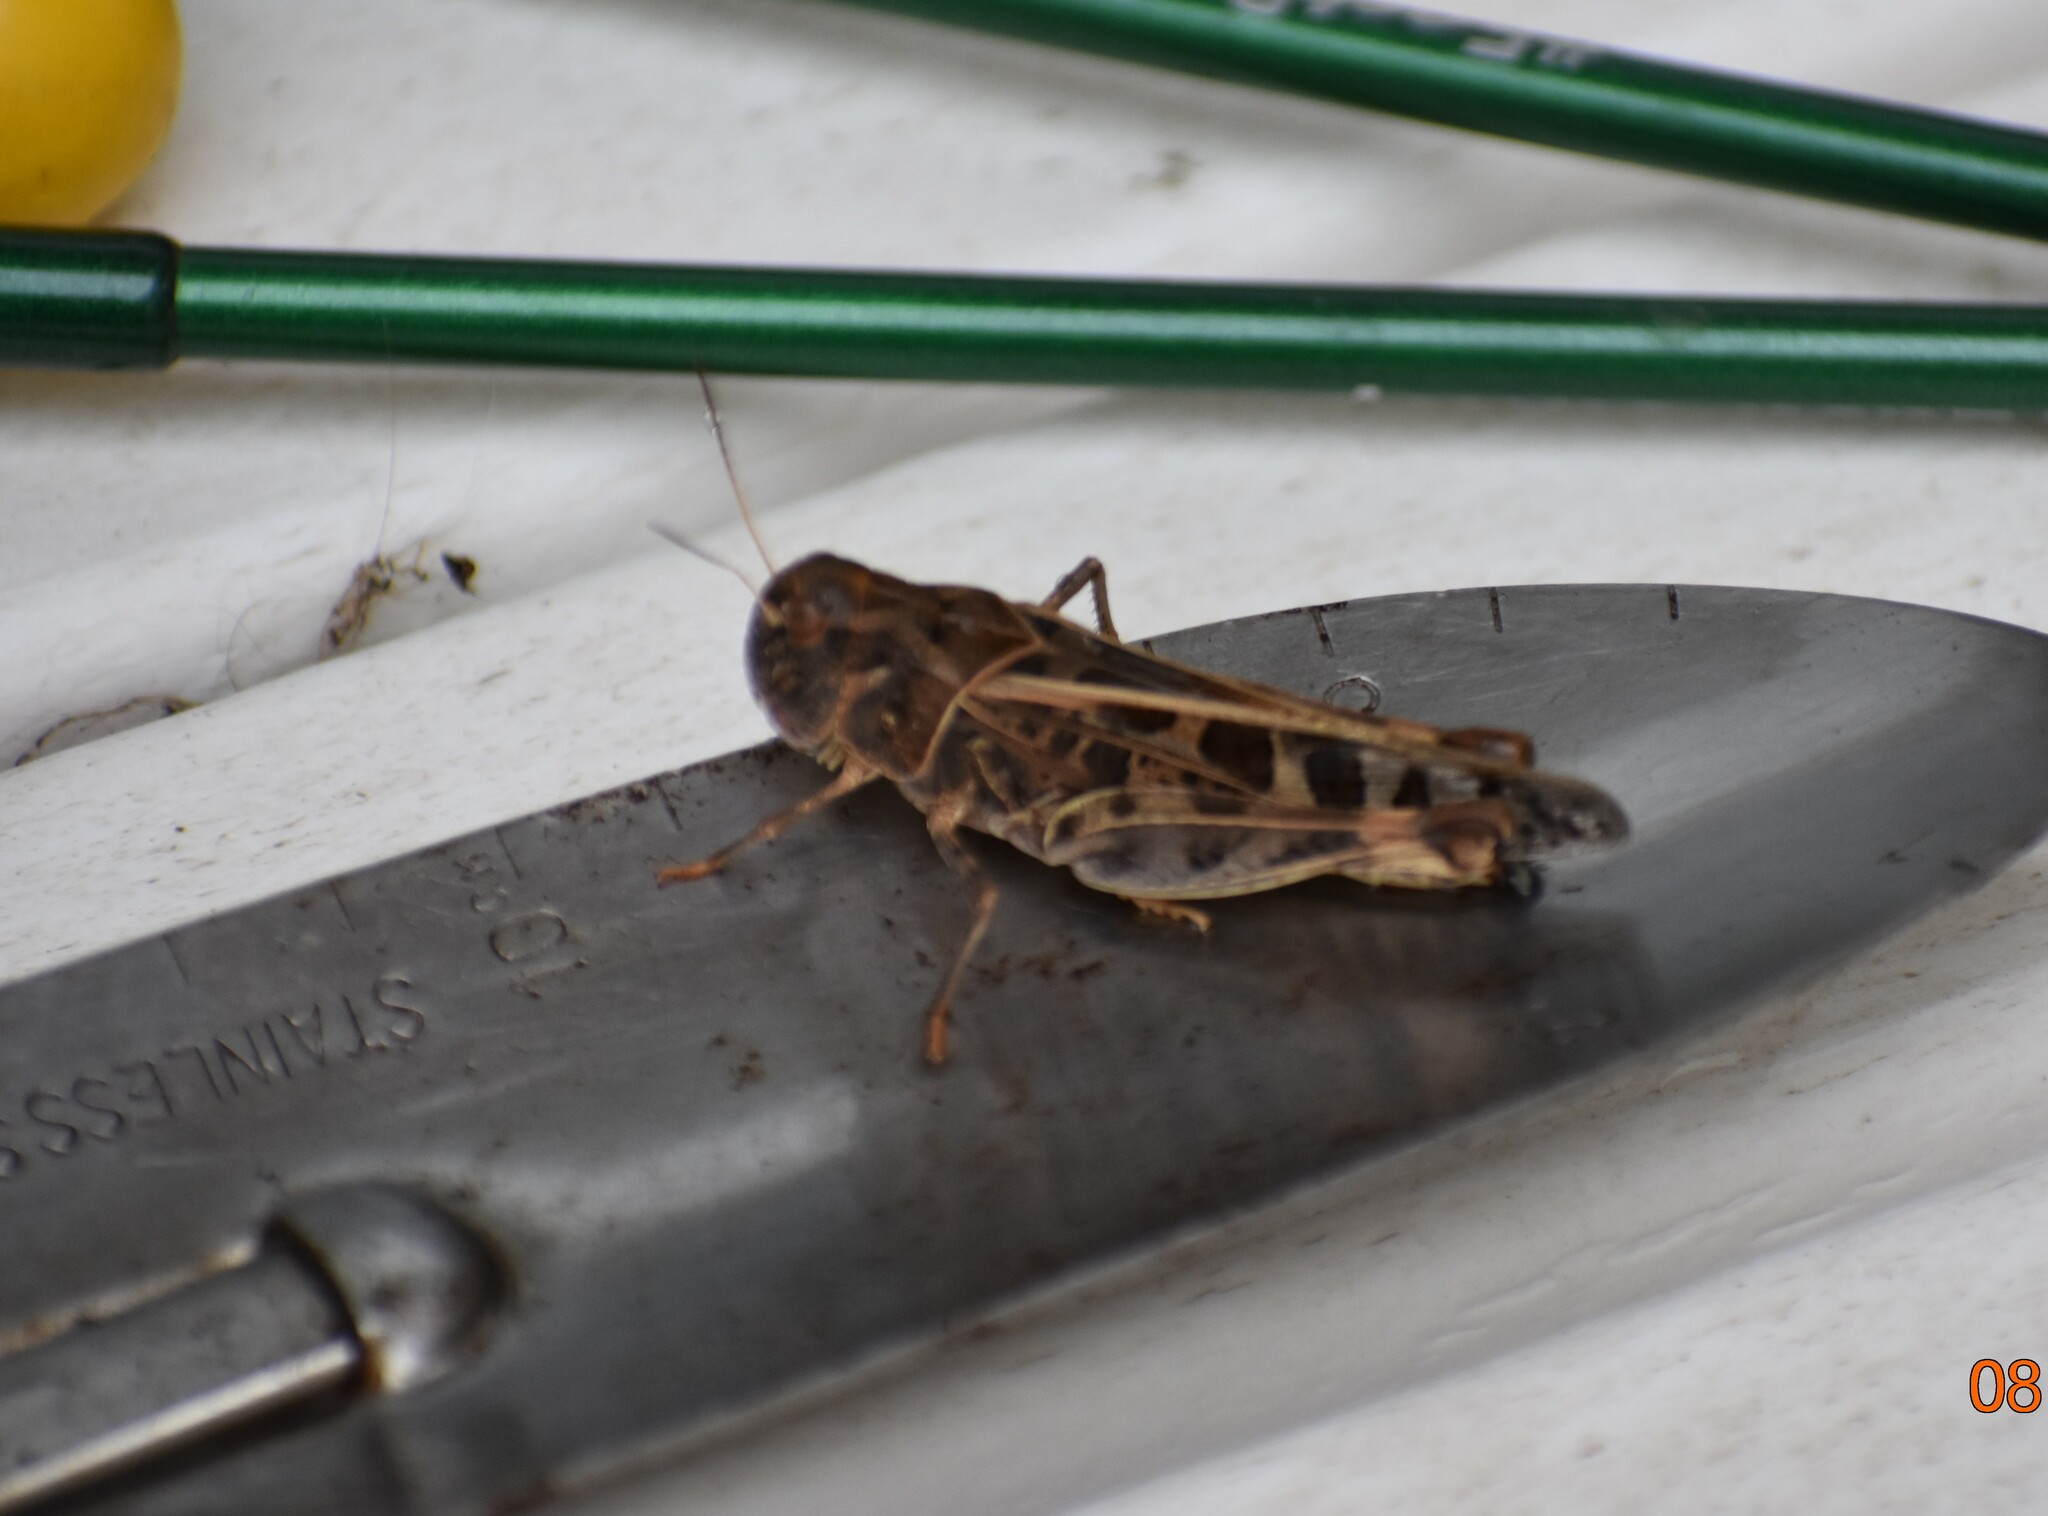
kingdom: Animalia
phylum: Arthropoda
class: Insecta
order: Orthoptera
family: Acrididae
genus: Hippiscus
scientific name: Hippiscus ocelote
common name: Wrinkled grasshopper
